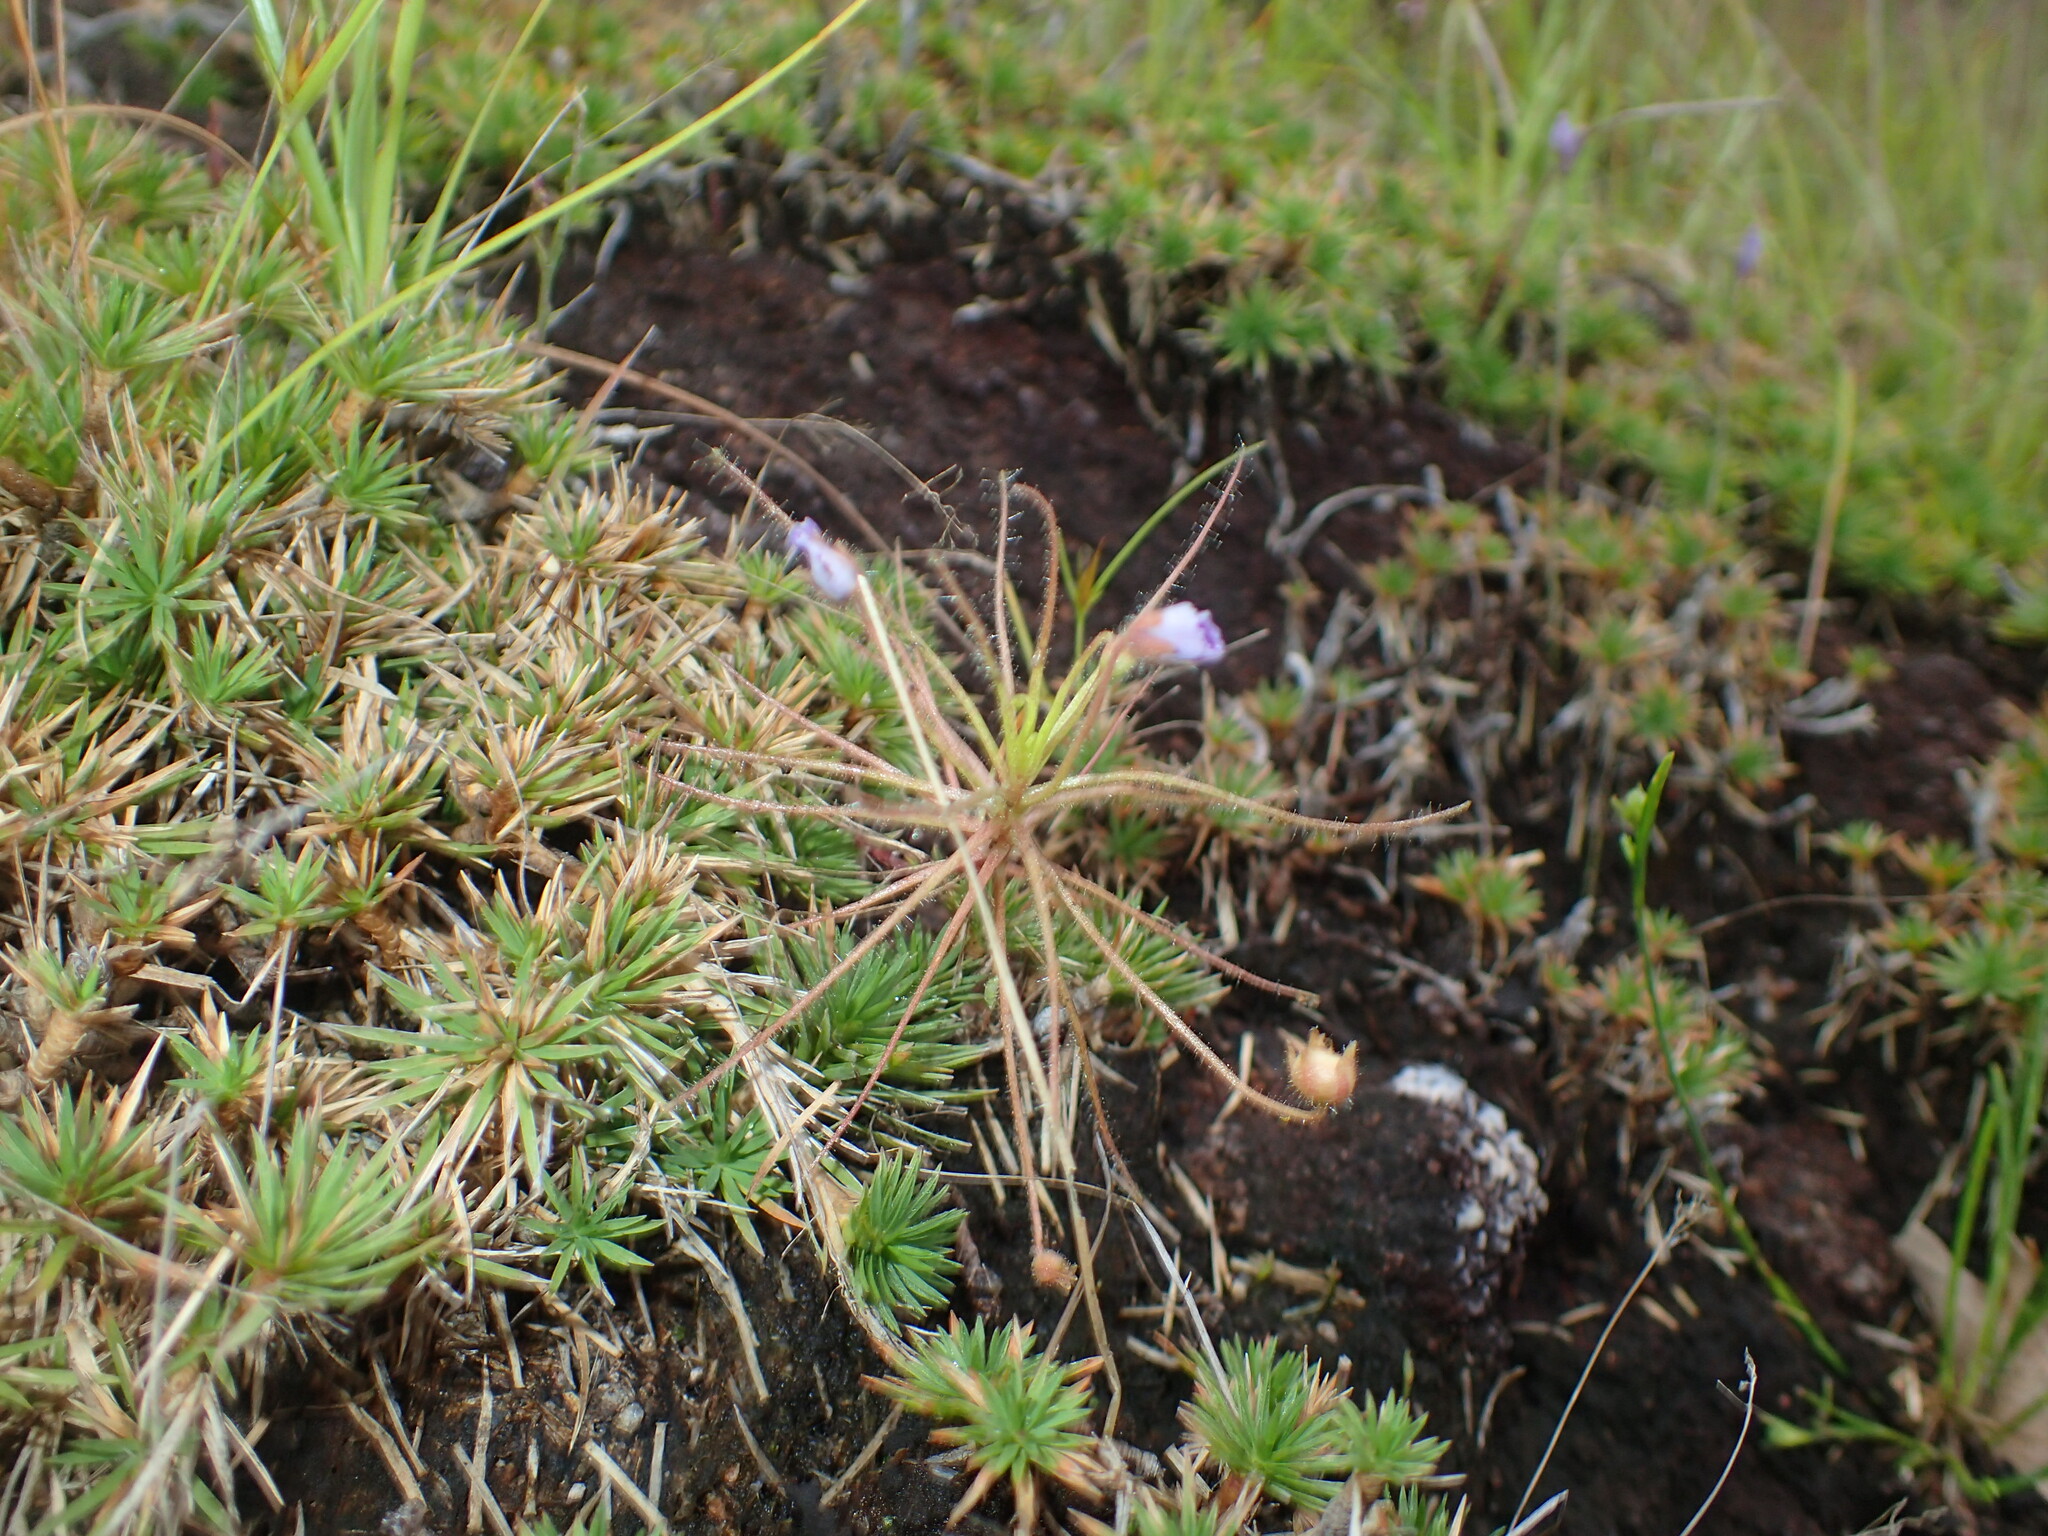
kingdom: Plantae
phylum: Tracheophyta
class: Magnoliopsida
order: Lamiales
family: Byblidaceae
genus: Byblis
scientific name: Byblis liniflora
